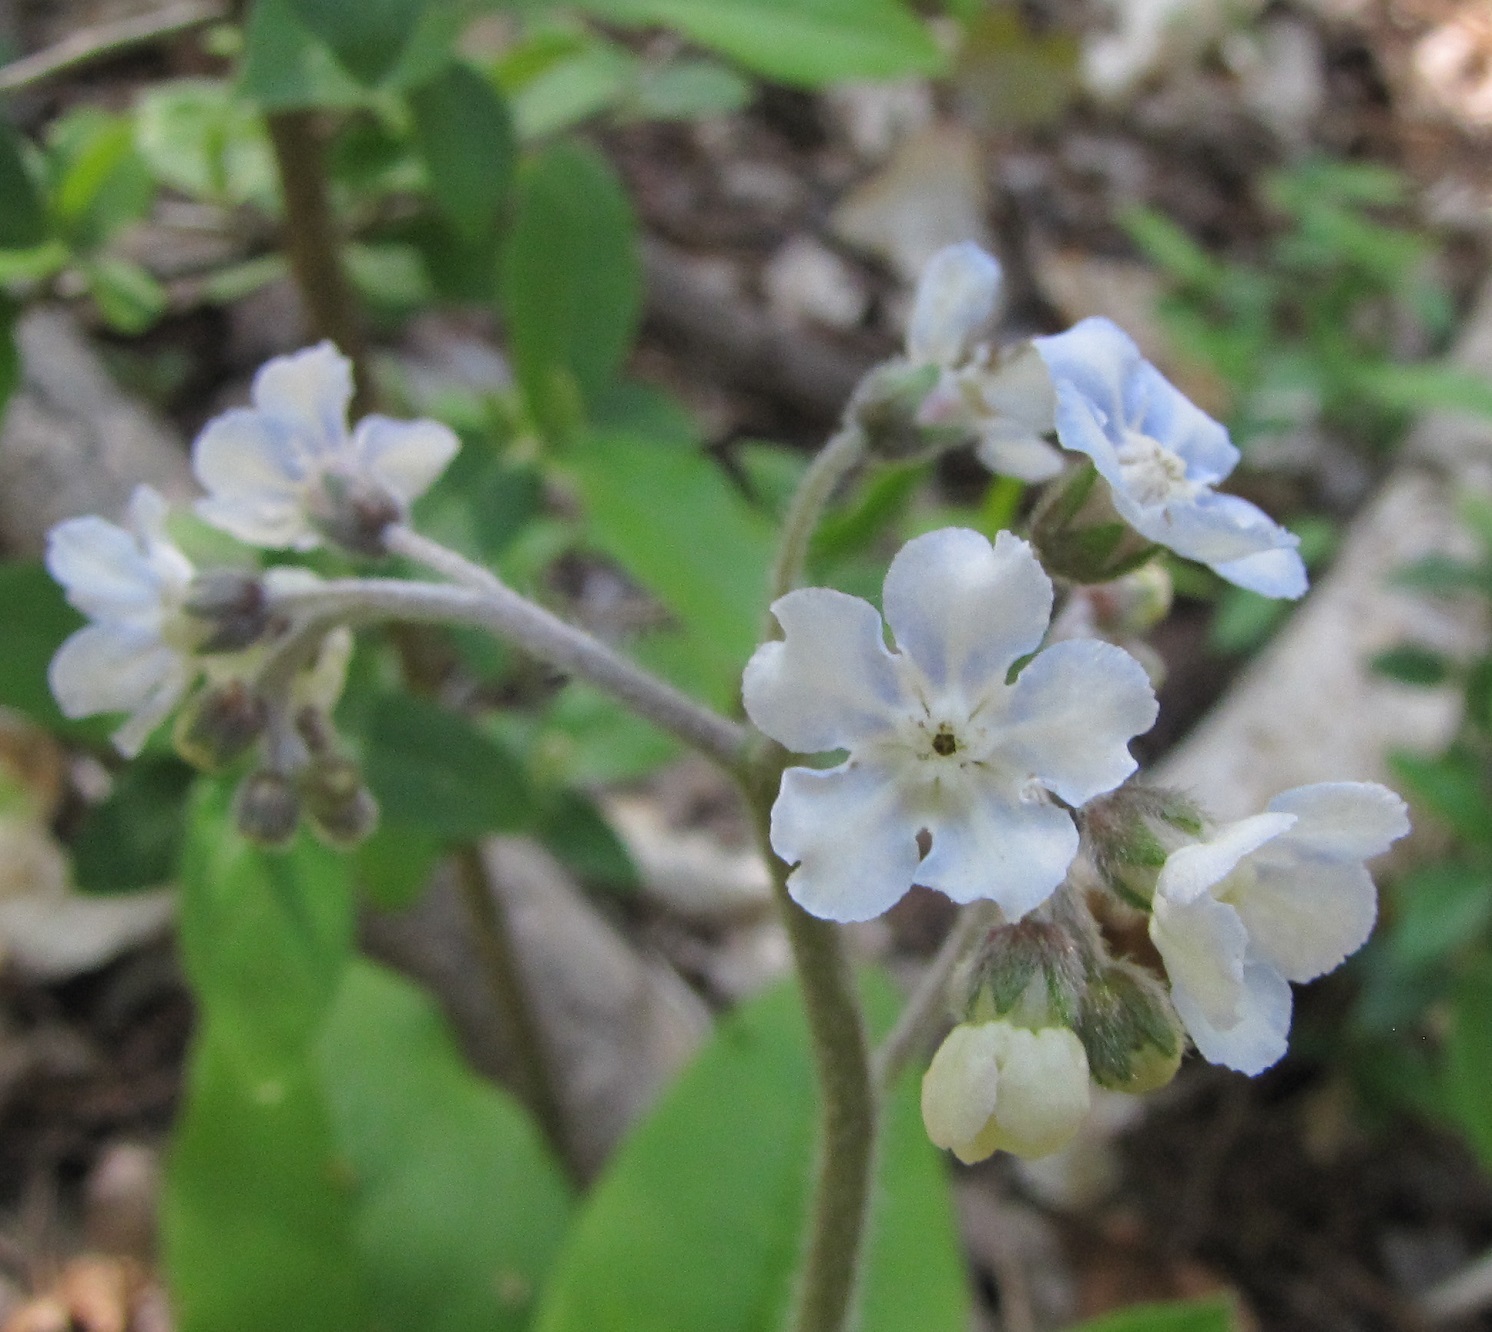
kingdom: Plantae
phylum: Tracheophyta
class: Magnoliopsida
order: Boraginales
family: Boraginaceae
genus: Andersonglossum
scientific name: Andersonglossum virginianum
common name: Wild comfrey
